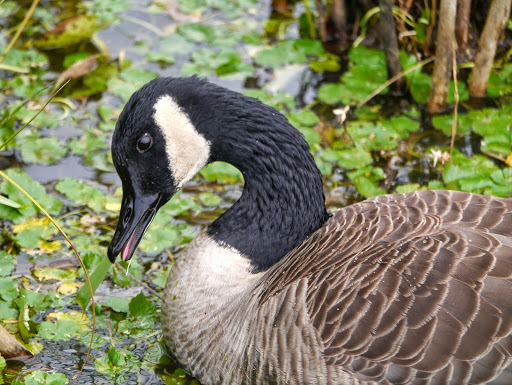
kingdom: Animalia
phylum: Chordata
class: Aves
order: Anseriformes
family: Anatidae
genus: Branta
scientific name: Branta canadensis
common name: Canada goose
